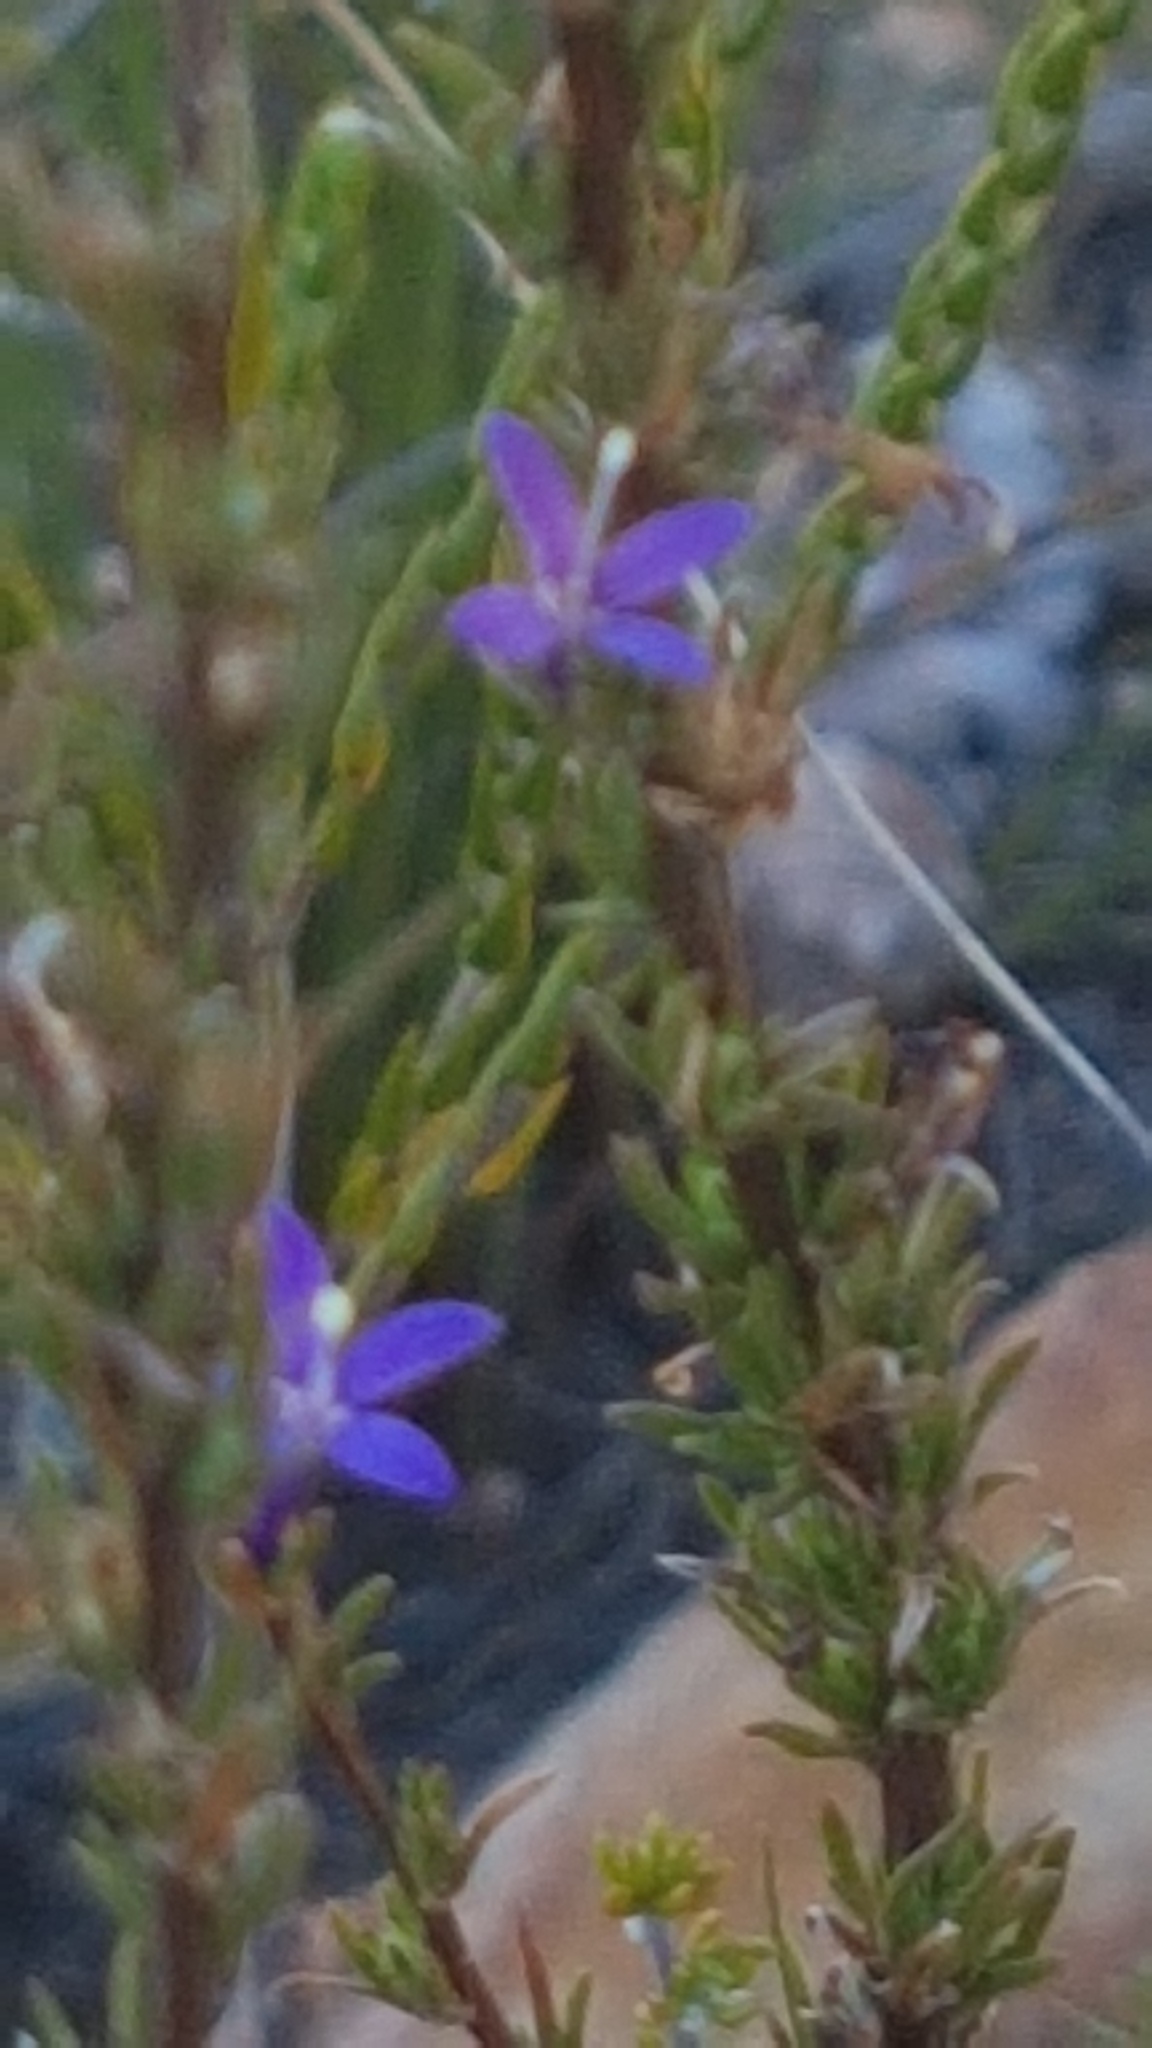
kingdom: Plantae
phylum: Tracheophyta
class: Magnoliopsida
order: Asterales
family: Campanulaceae
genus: Theilera
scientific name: Theilera guthriei
